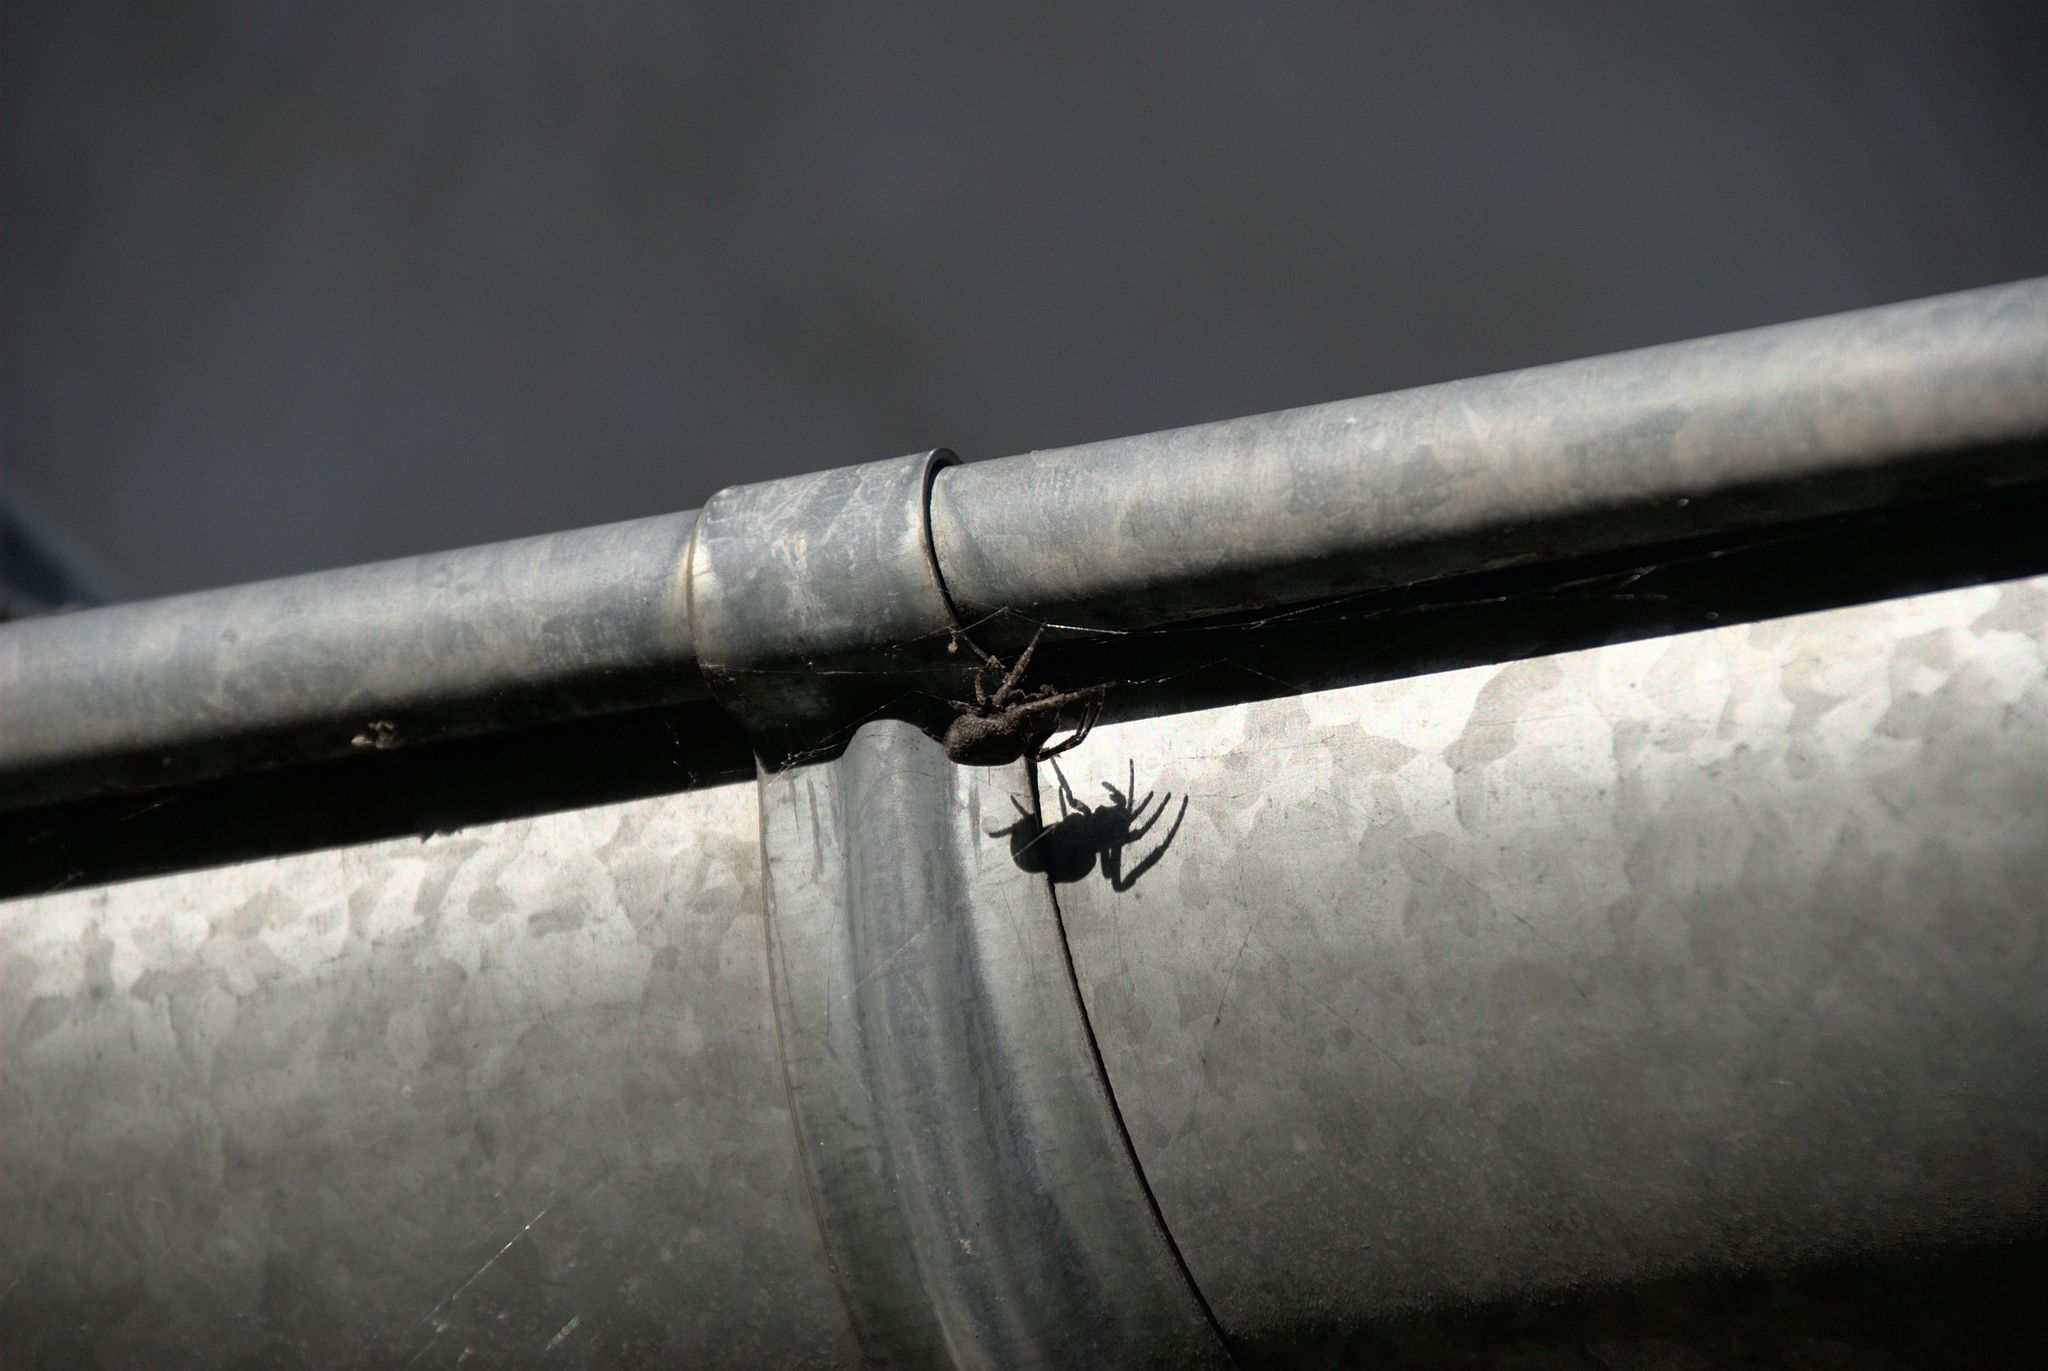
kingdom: Animalia
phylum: Arthropoda
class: Arachnida
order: Araneae
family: Araneidae
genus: Nuctenea
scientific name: Nuctenea umbratica
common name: Toad spider
